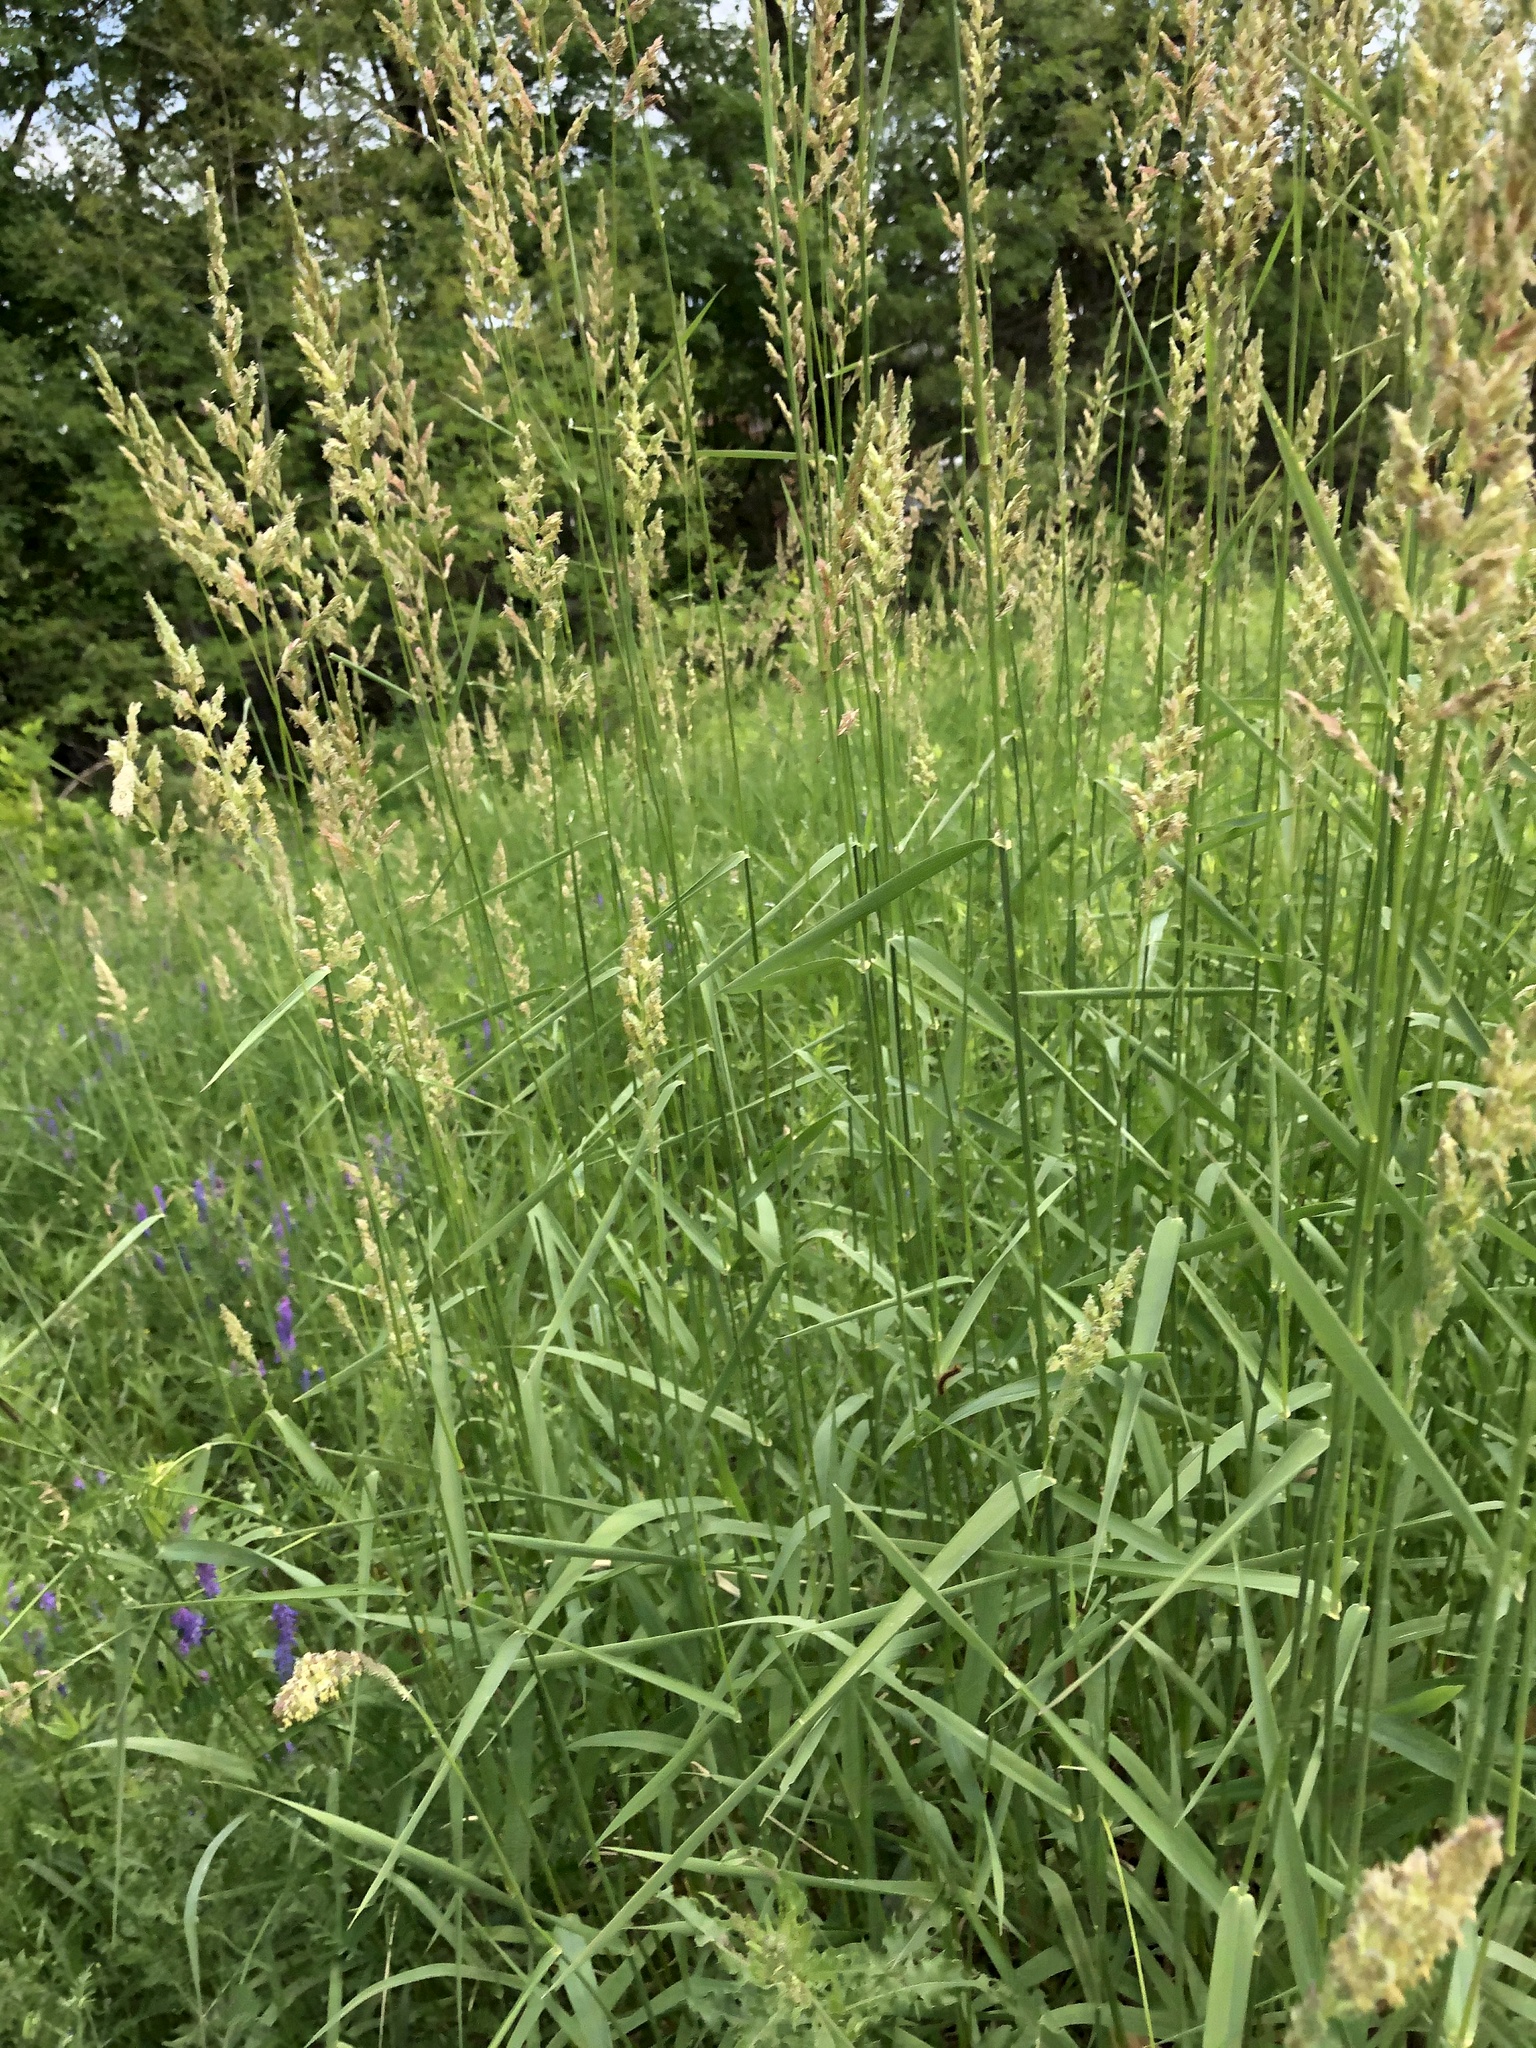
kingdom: Plantae
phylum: Tracheophyta
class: Liliopsida
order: Poales
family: Poaceae
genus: Phalaris
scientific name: Phalaris arundinacea
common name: Reed canary-grass
